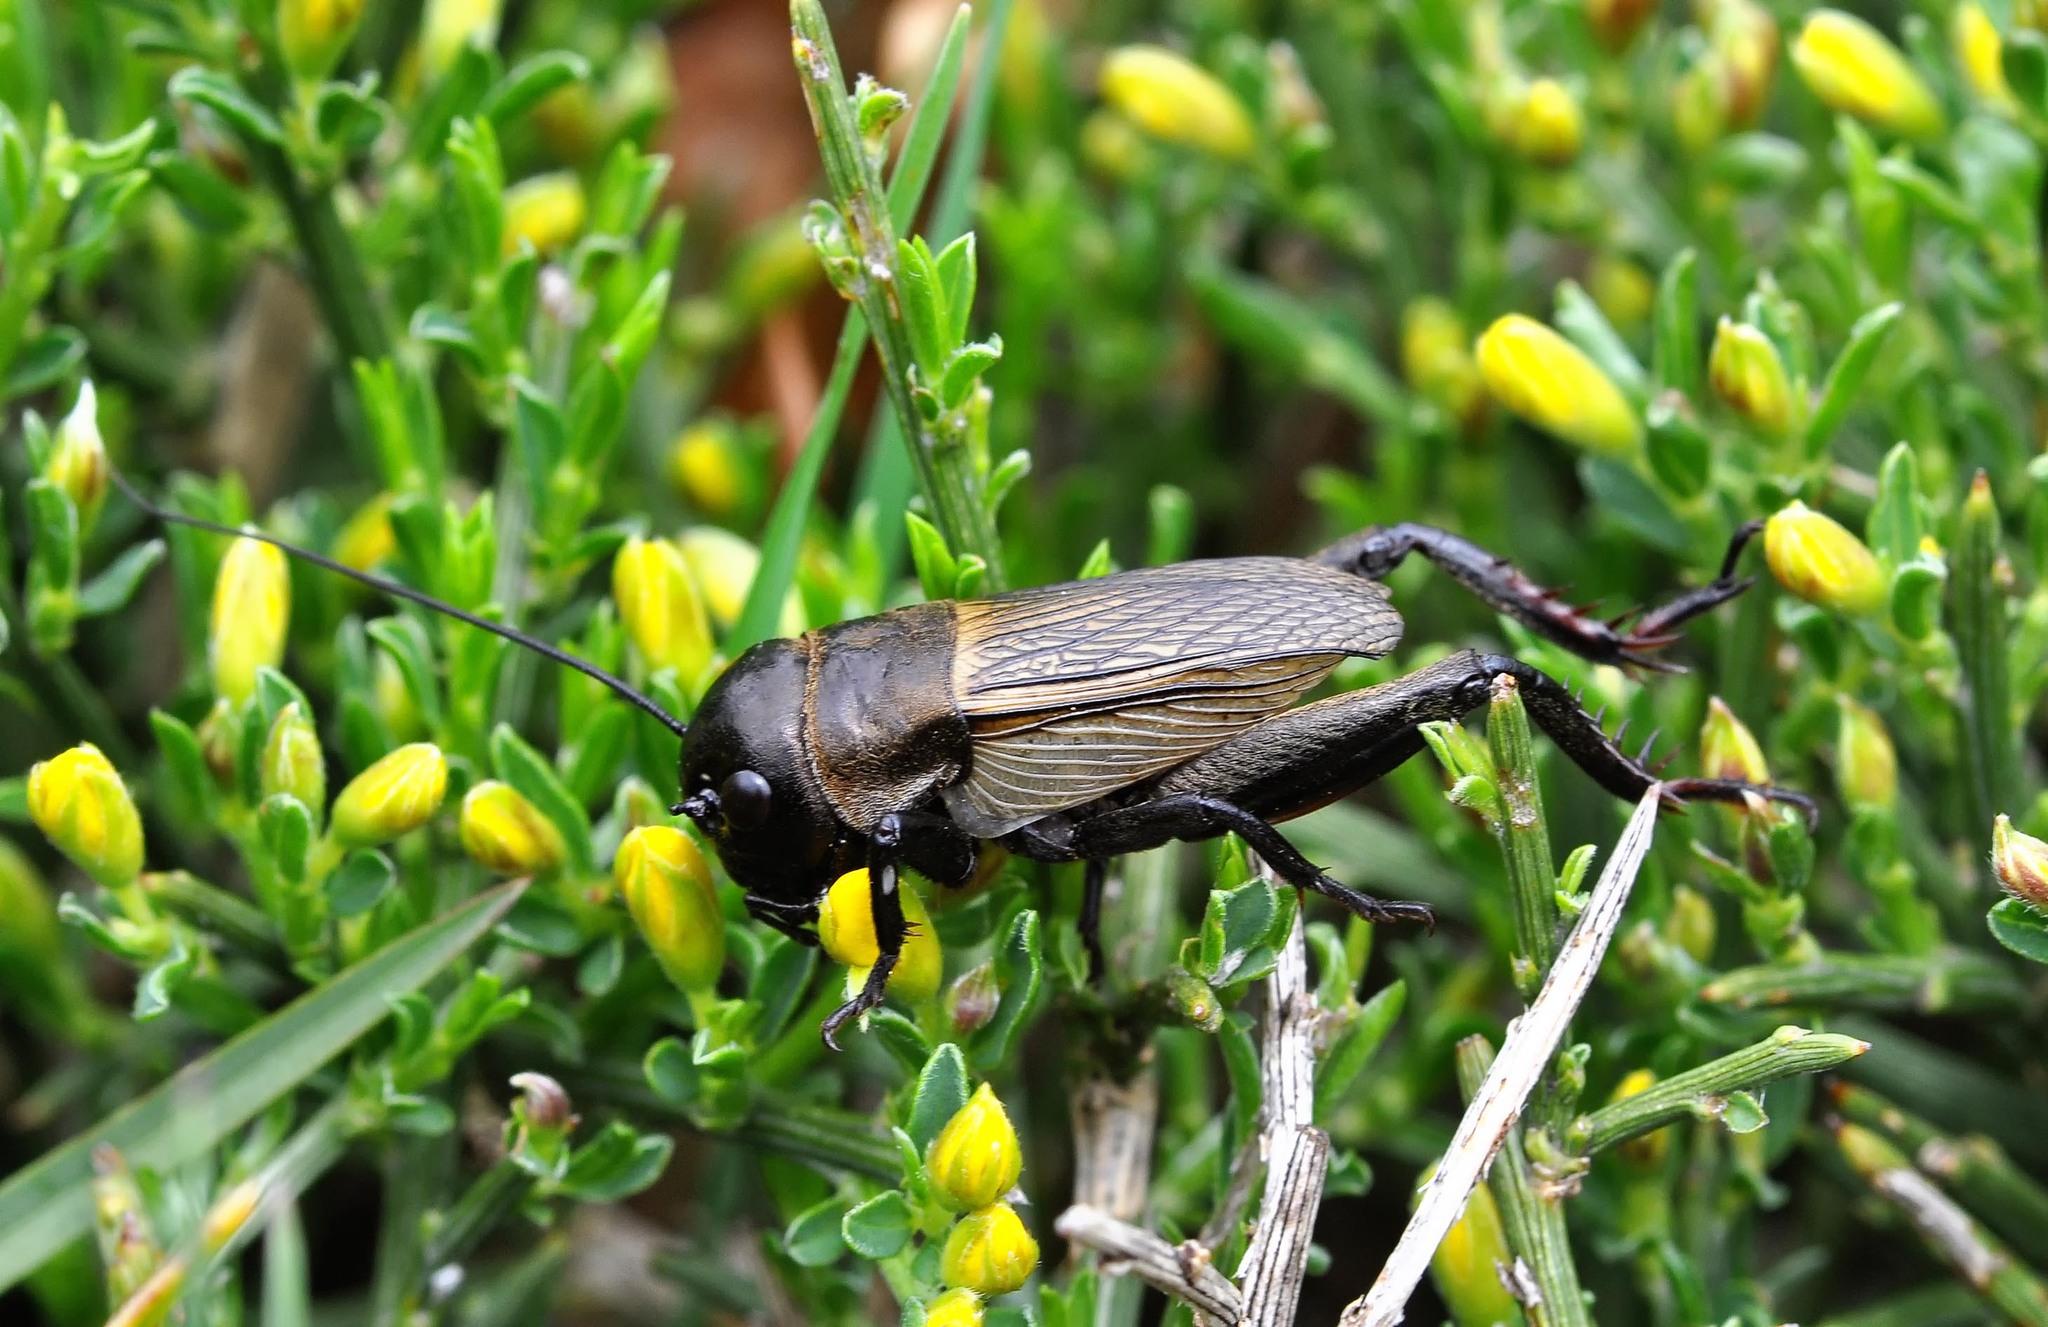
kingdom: Animalia
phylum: Arthropoda
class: Insecta
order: Orthoptera
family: Gryllidae
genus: Gryllus
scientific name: Gryllus campestris
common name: Field cricket
